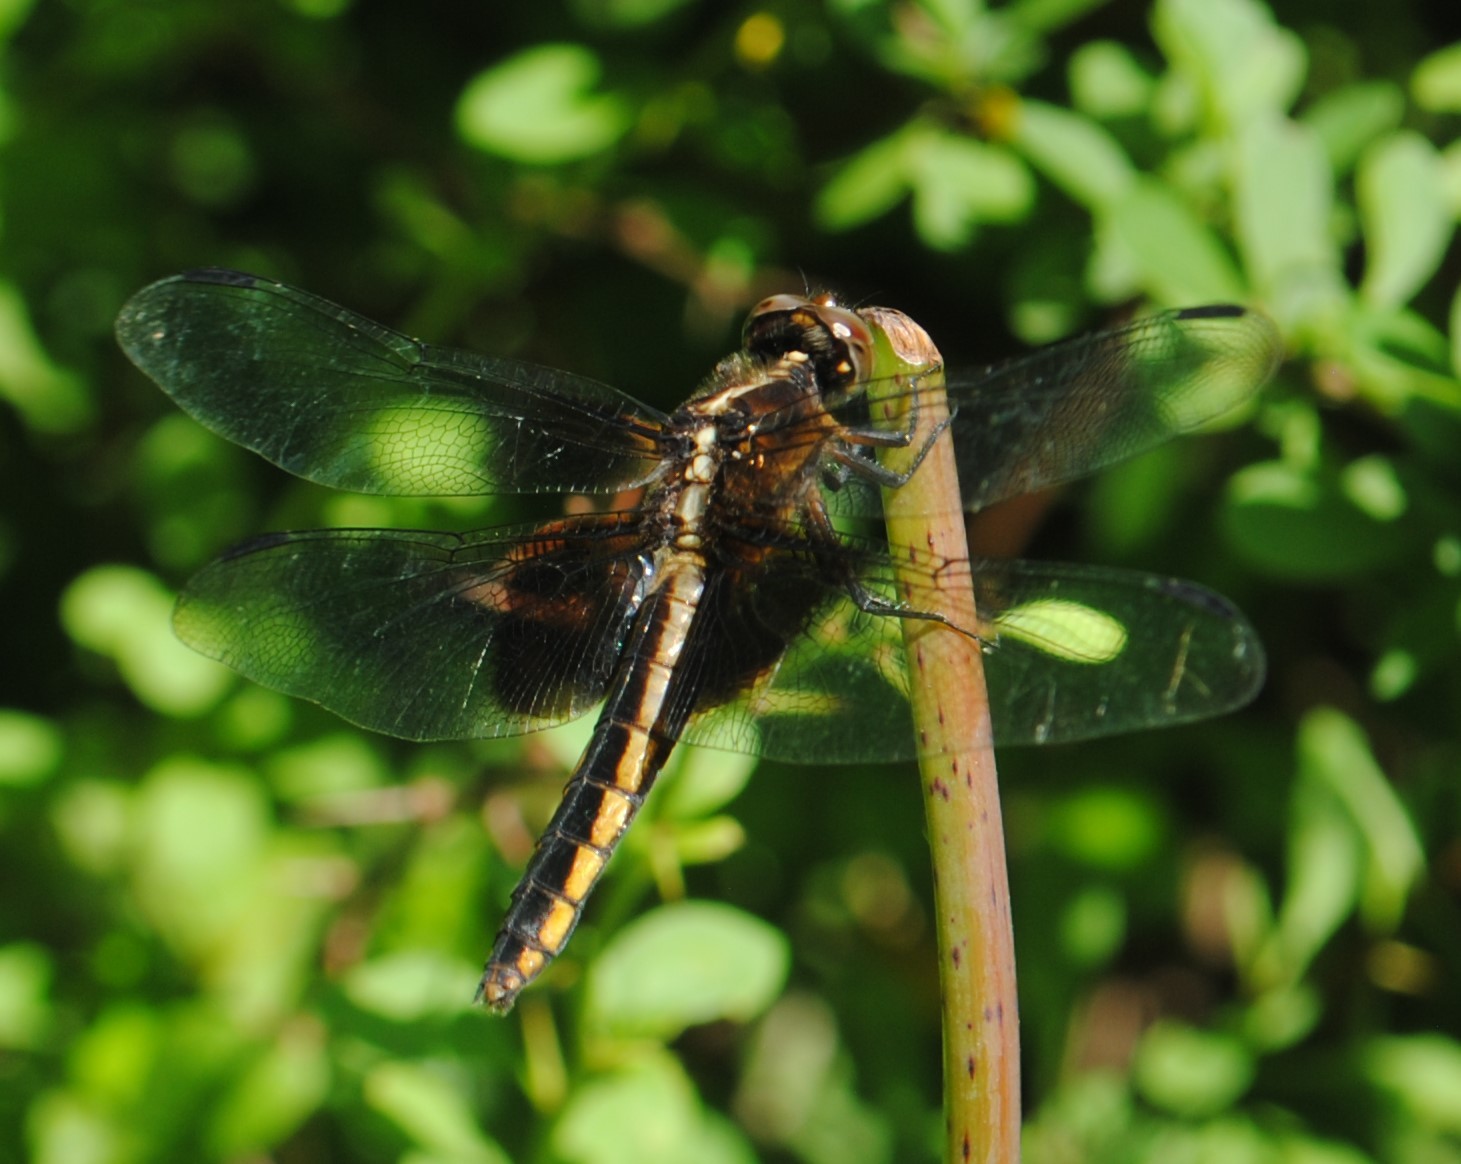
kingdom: Animalia
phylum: Arthropoda
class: Insecta
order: Odonata
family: Libellulidae
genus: Libellula
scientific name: Libellula luctuosa
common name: Widow skimmer
